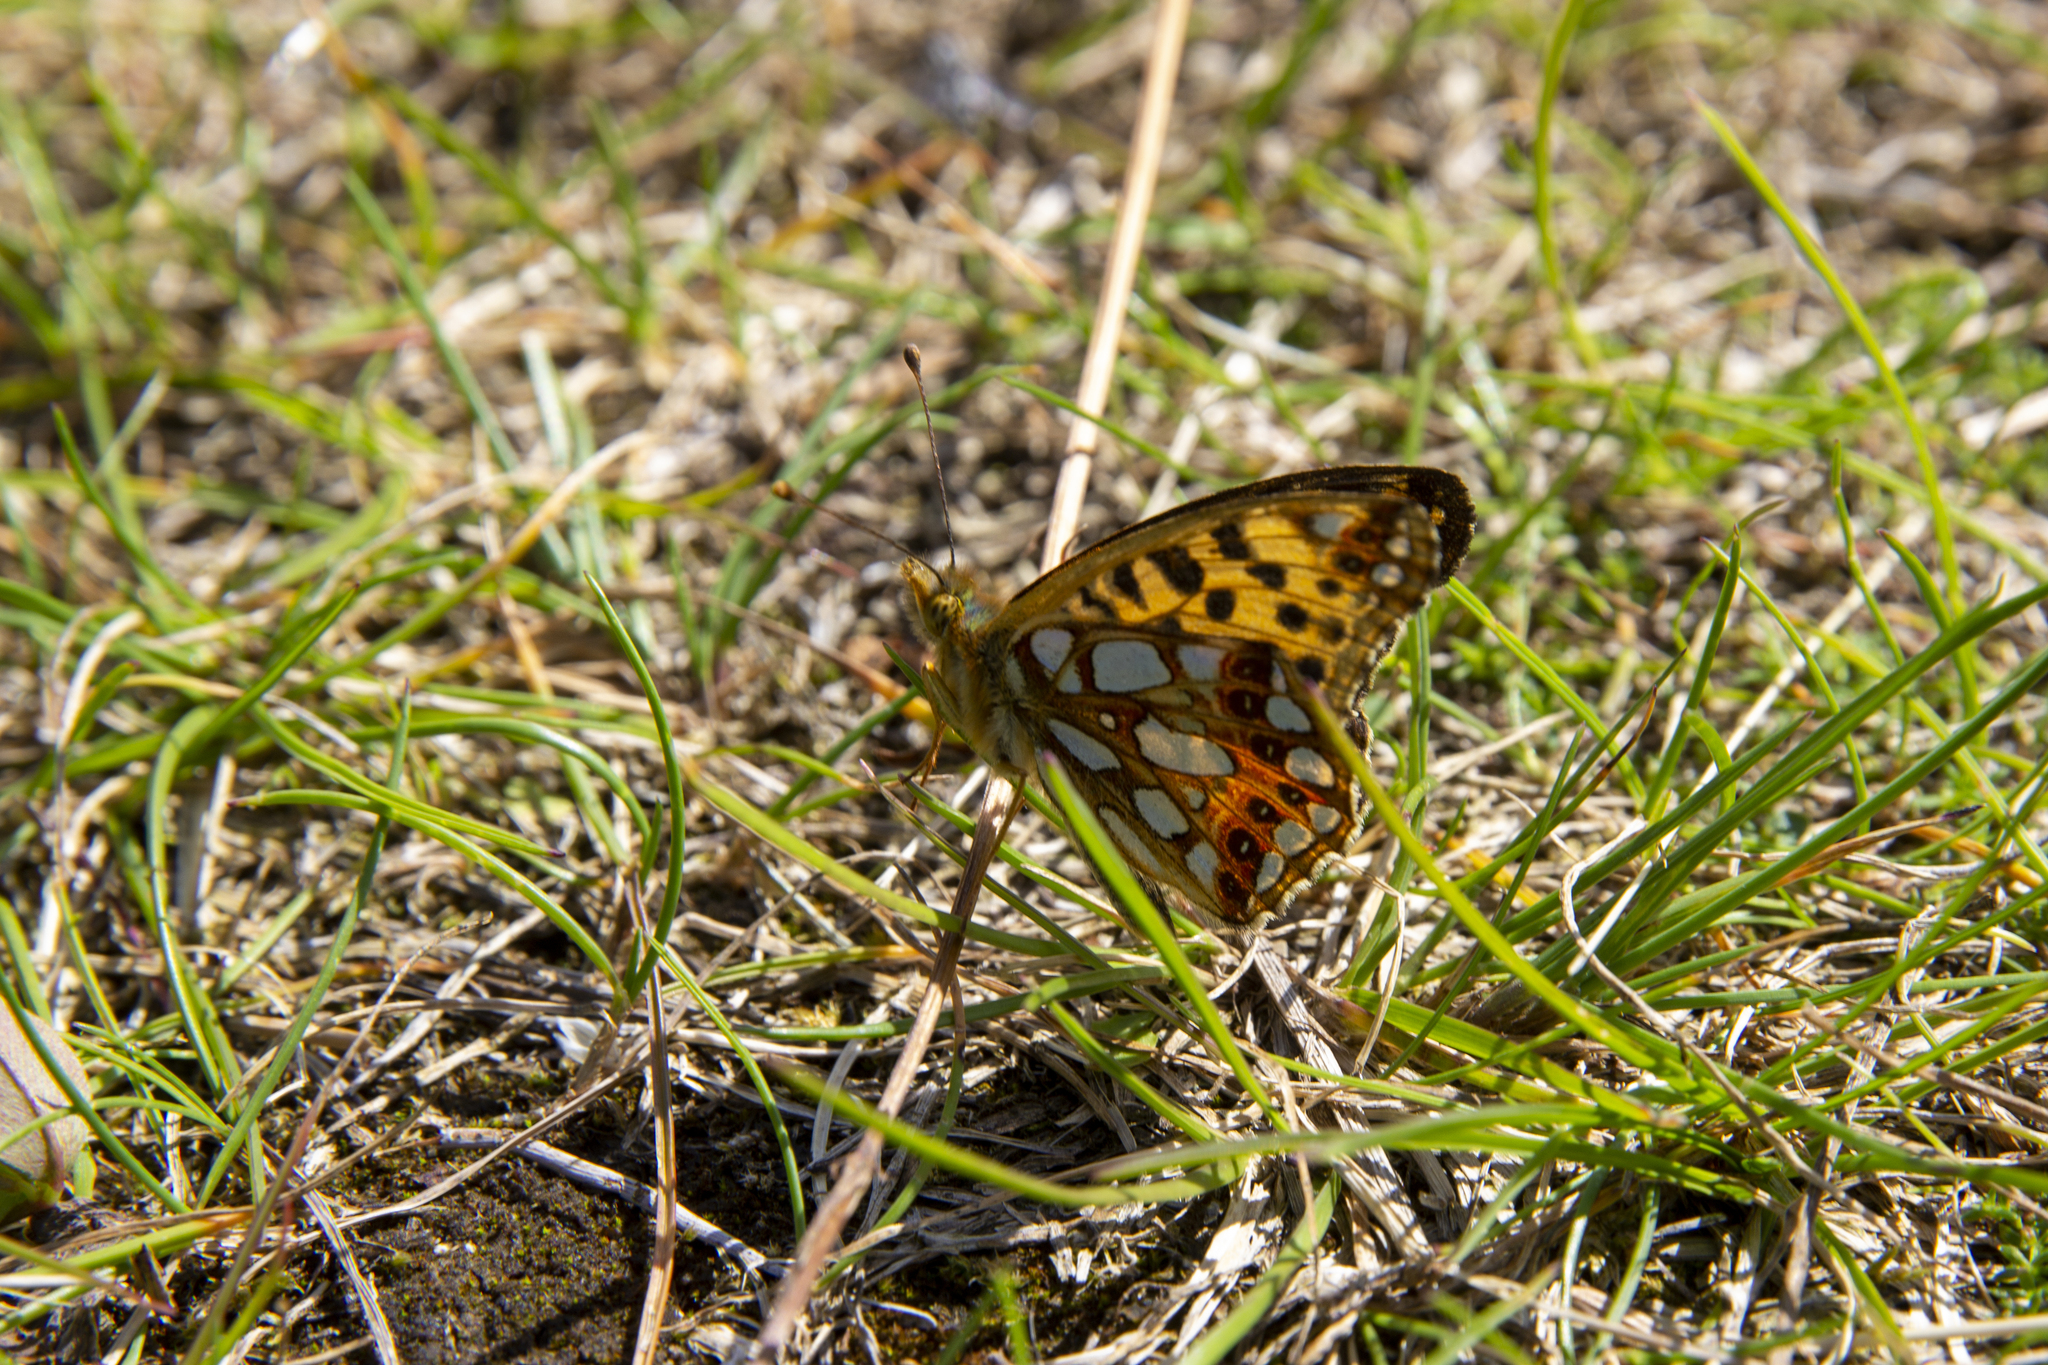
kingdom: Animalia
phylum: Arthropoda
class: Insecta
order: Lepidoptera
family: Nymphalidae
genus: Issoria
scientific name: Issoria lathonia
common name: Queen of spain fritillary
